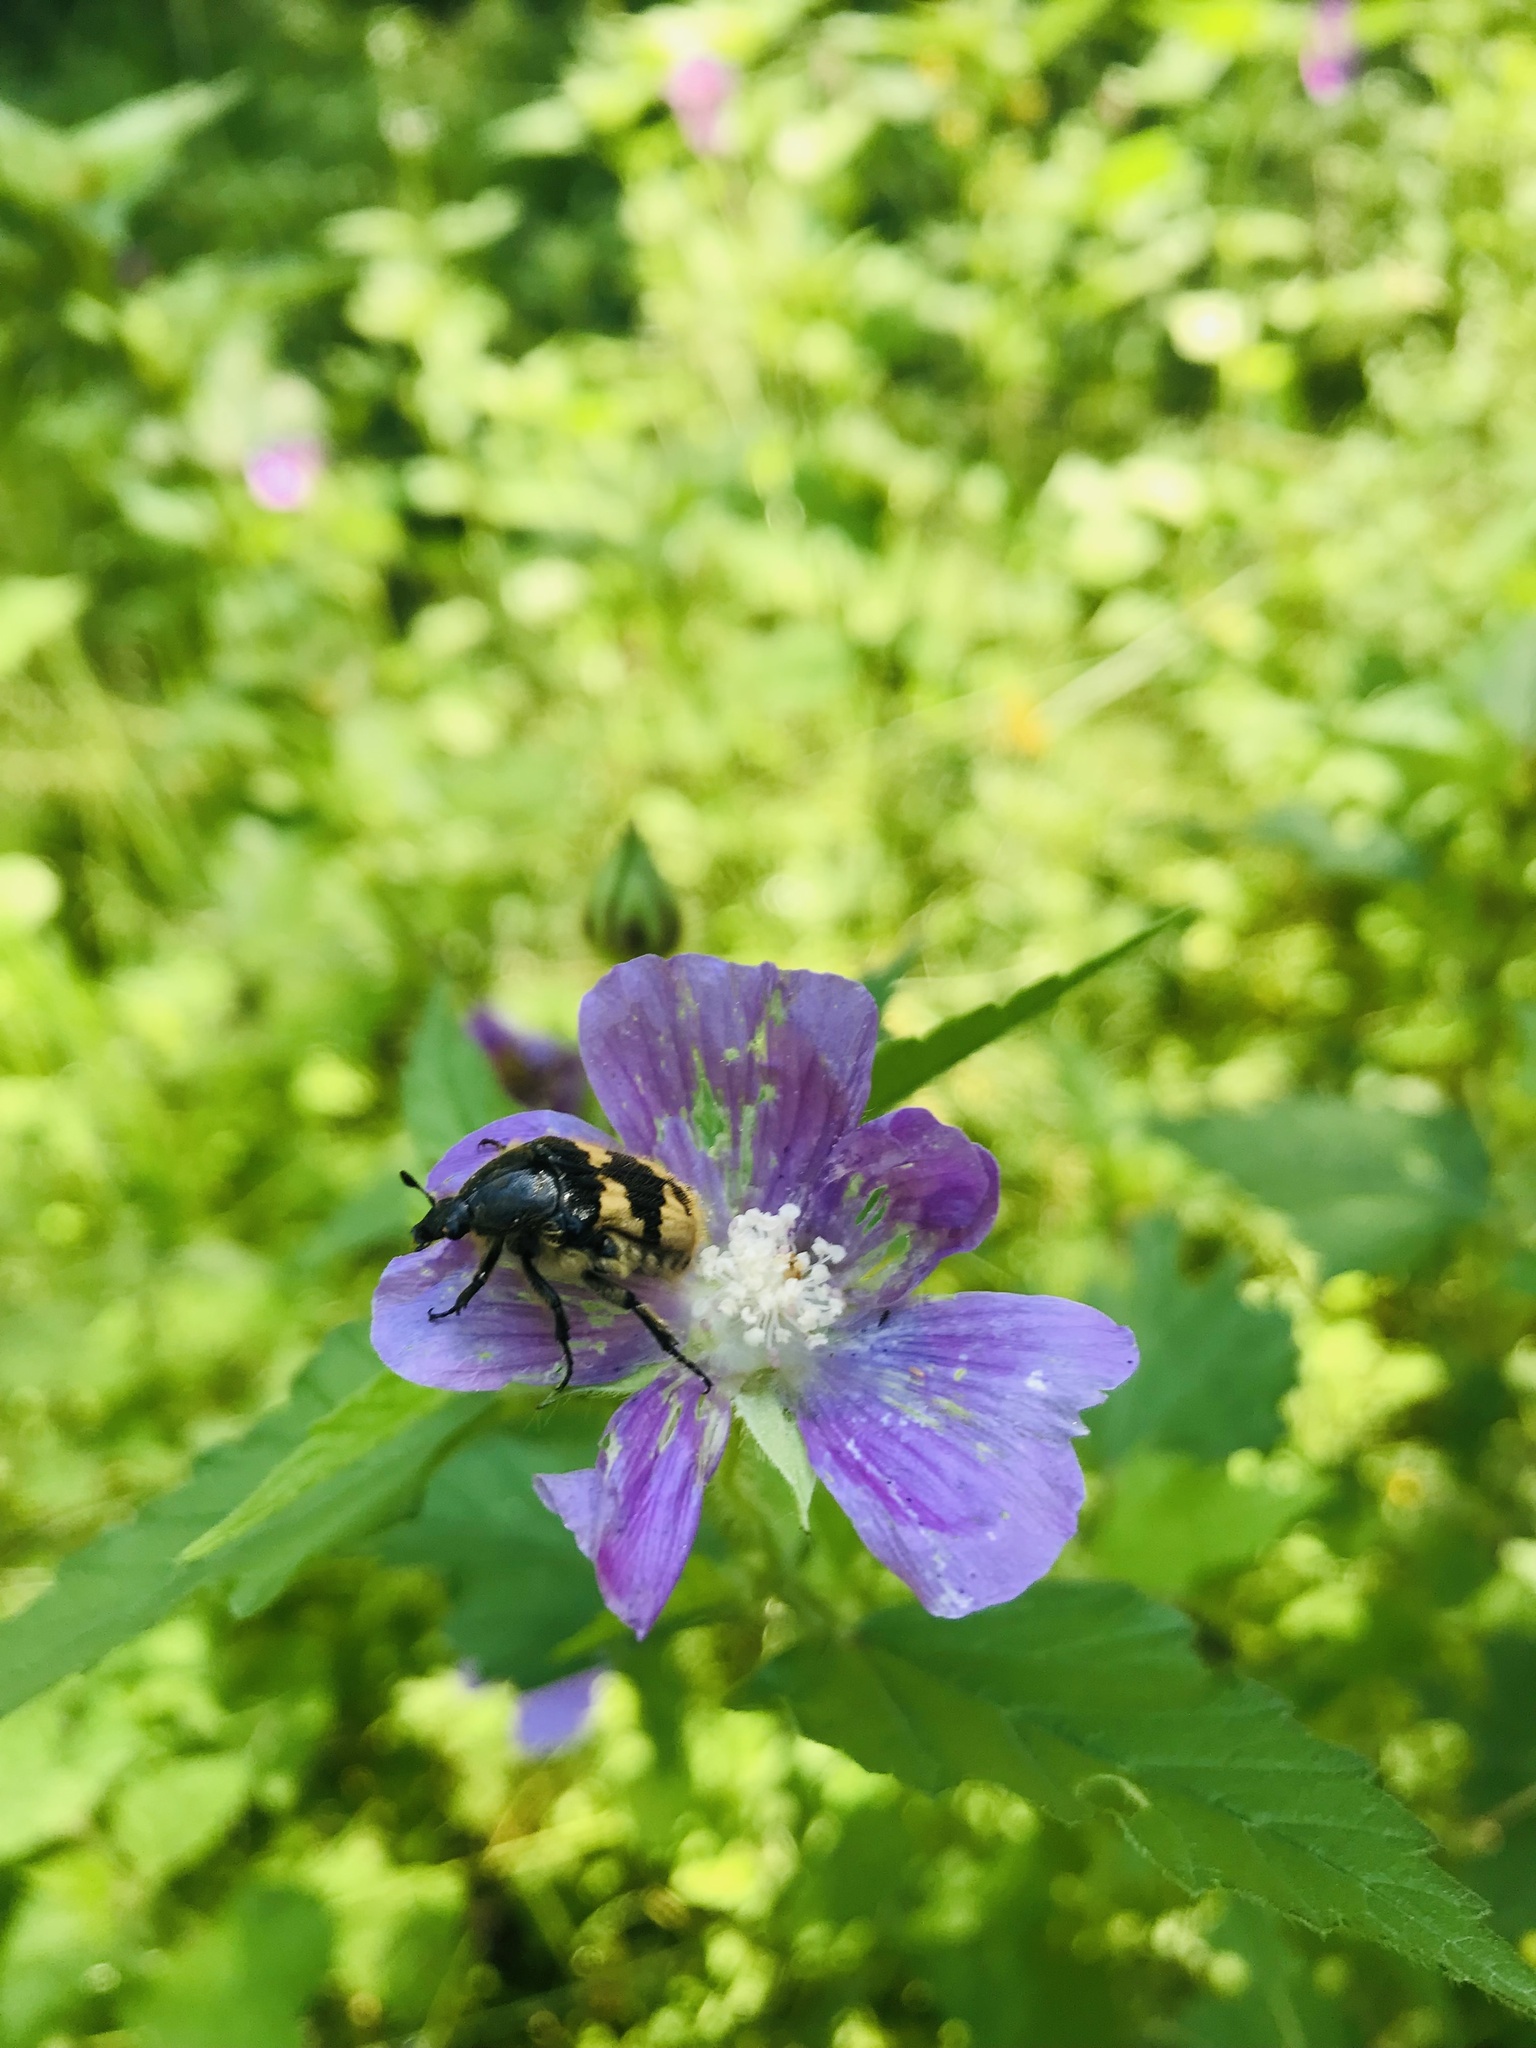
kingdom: Animalia
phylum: Arthropoda
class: Insecta
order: Coleoptera
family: Scarabaeidae
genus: Euphoria
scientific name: Euphoria basalis
